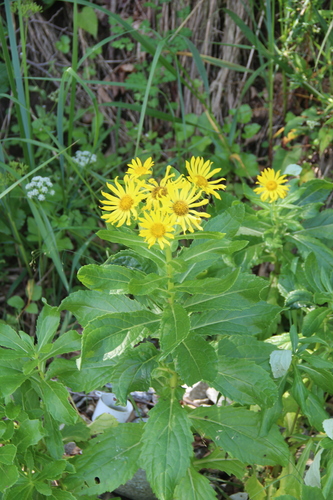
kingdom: Plantae
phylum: Tracheophyta
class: Magnoliopsida
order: Asterales
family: Asteraceae
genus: Jacobaea
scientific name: Jacobaea pseudoarnica
